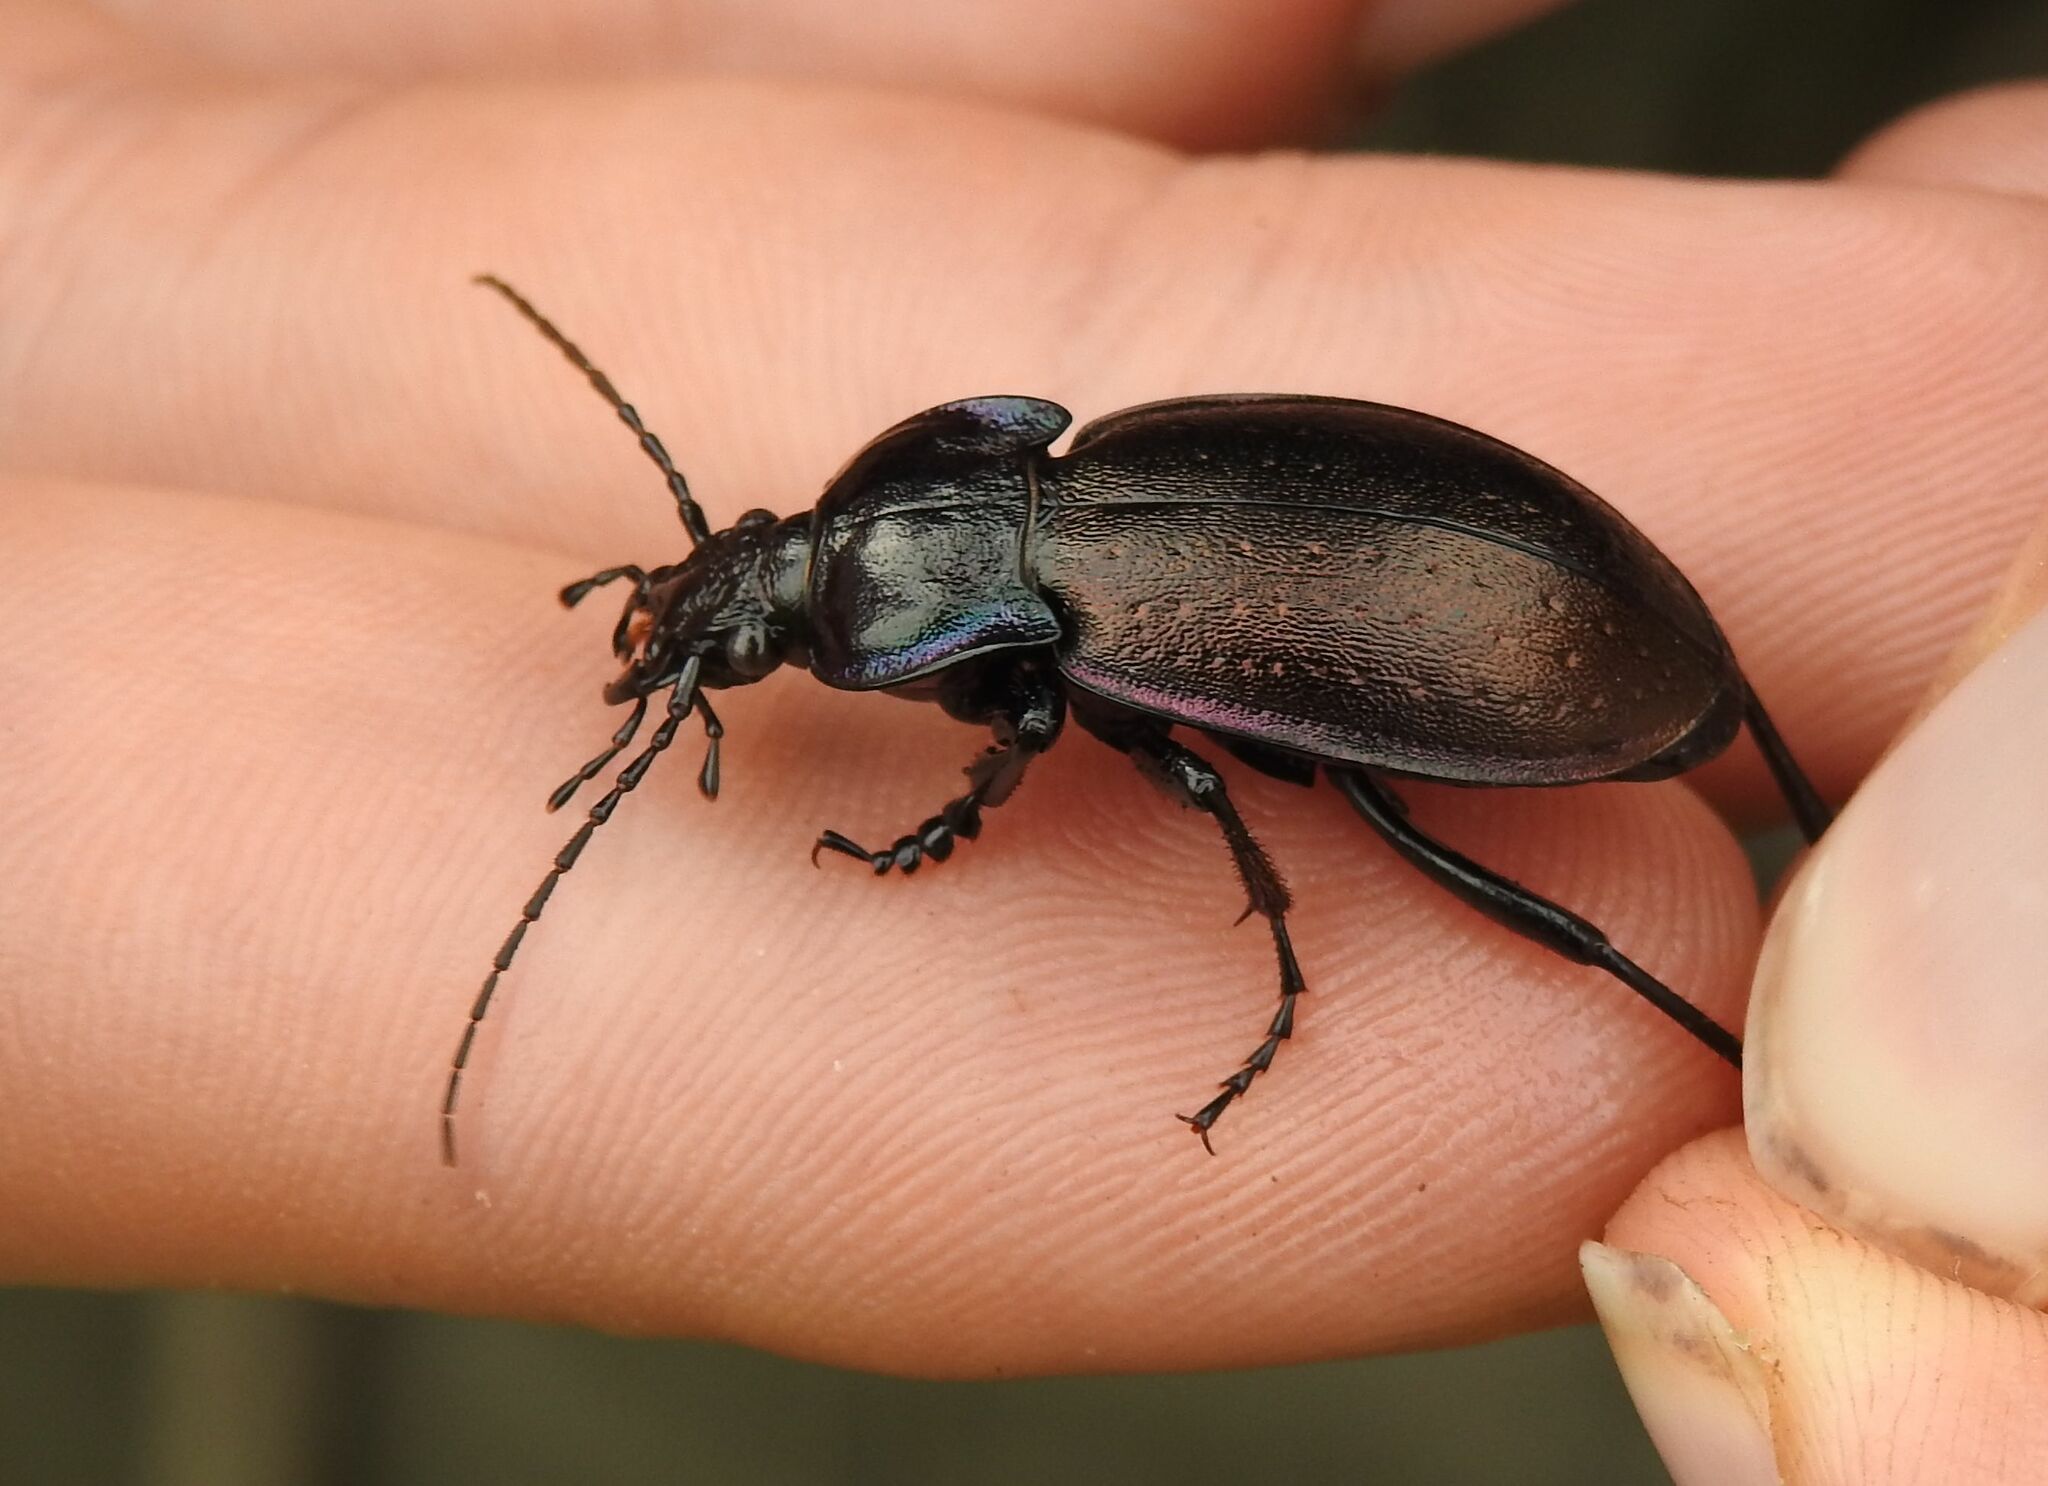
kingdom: Animalia
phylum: Arthropoda
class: Insecta
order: Coleoptera
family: Carabidae
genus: Carabus
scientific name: Carabus nemoralis
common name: European ground beetle
